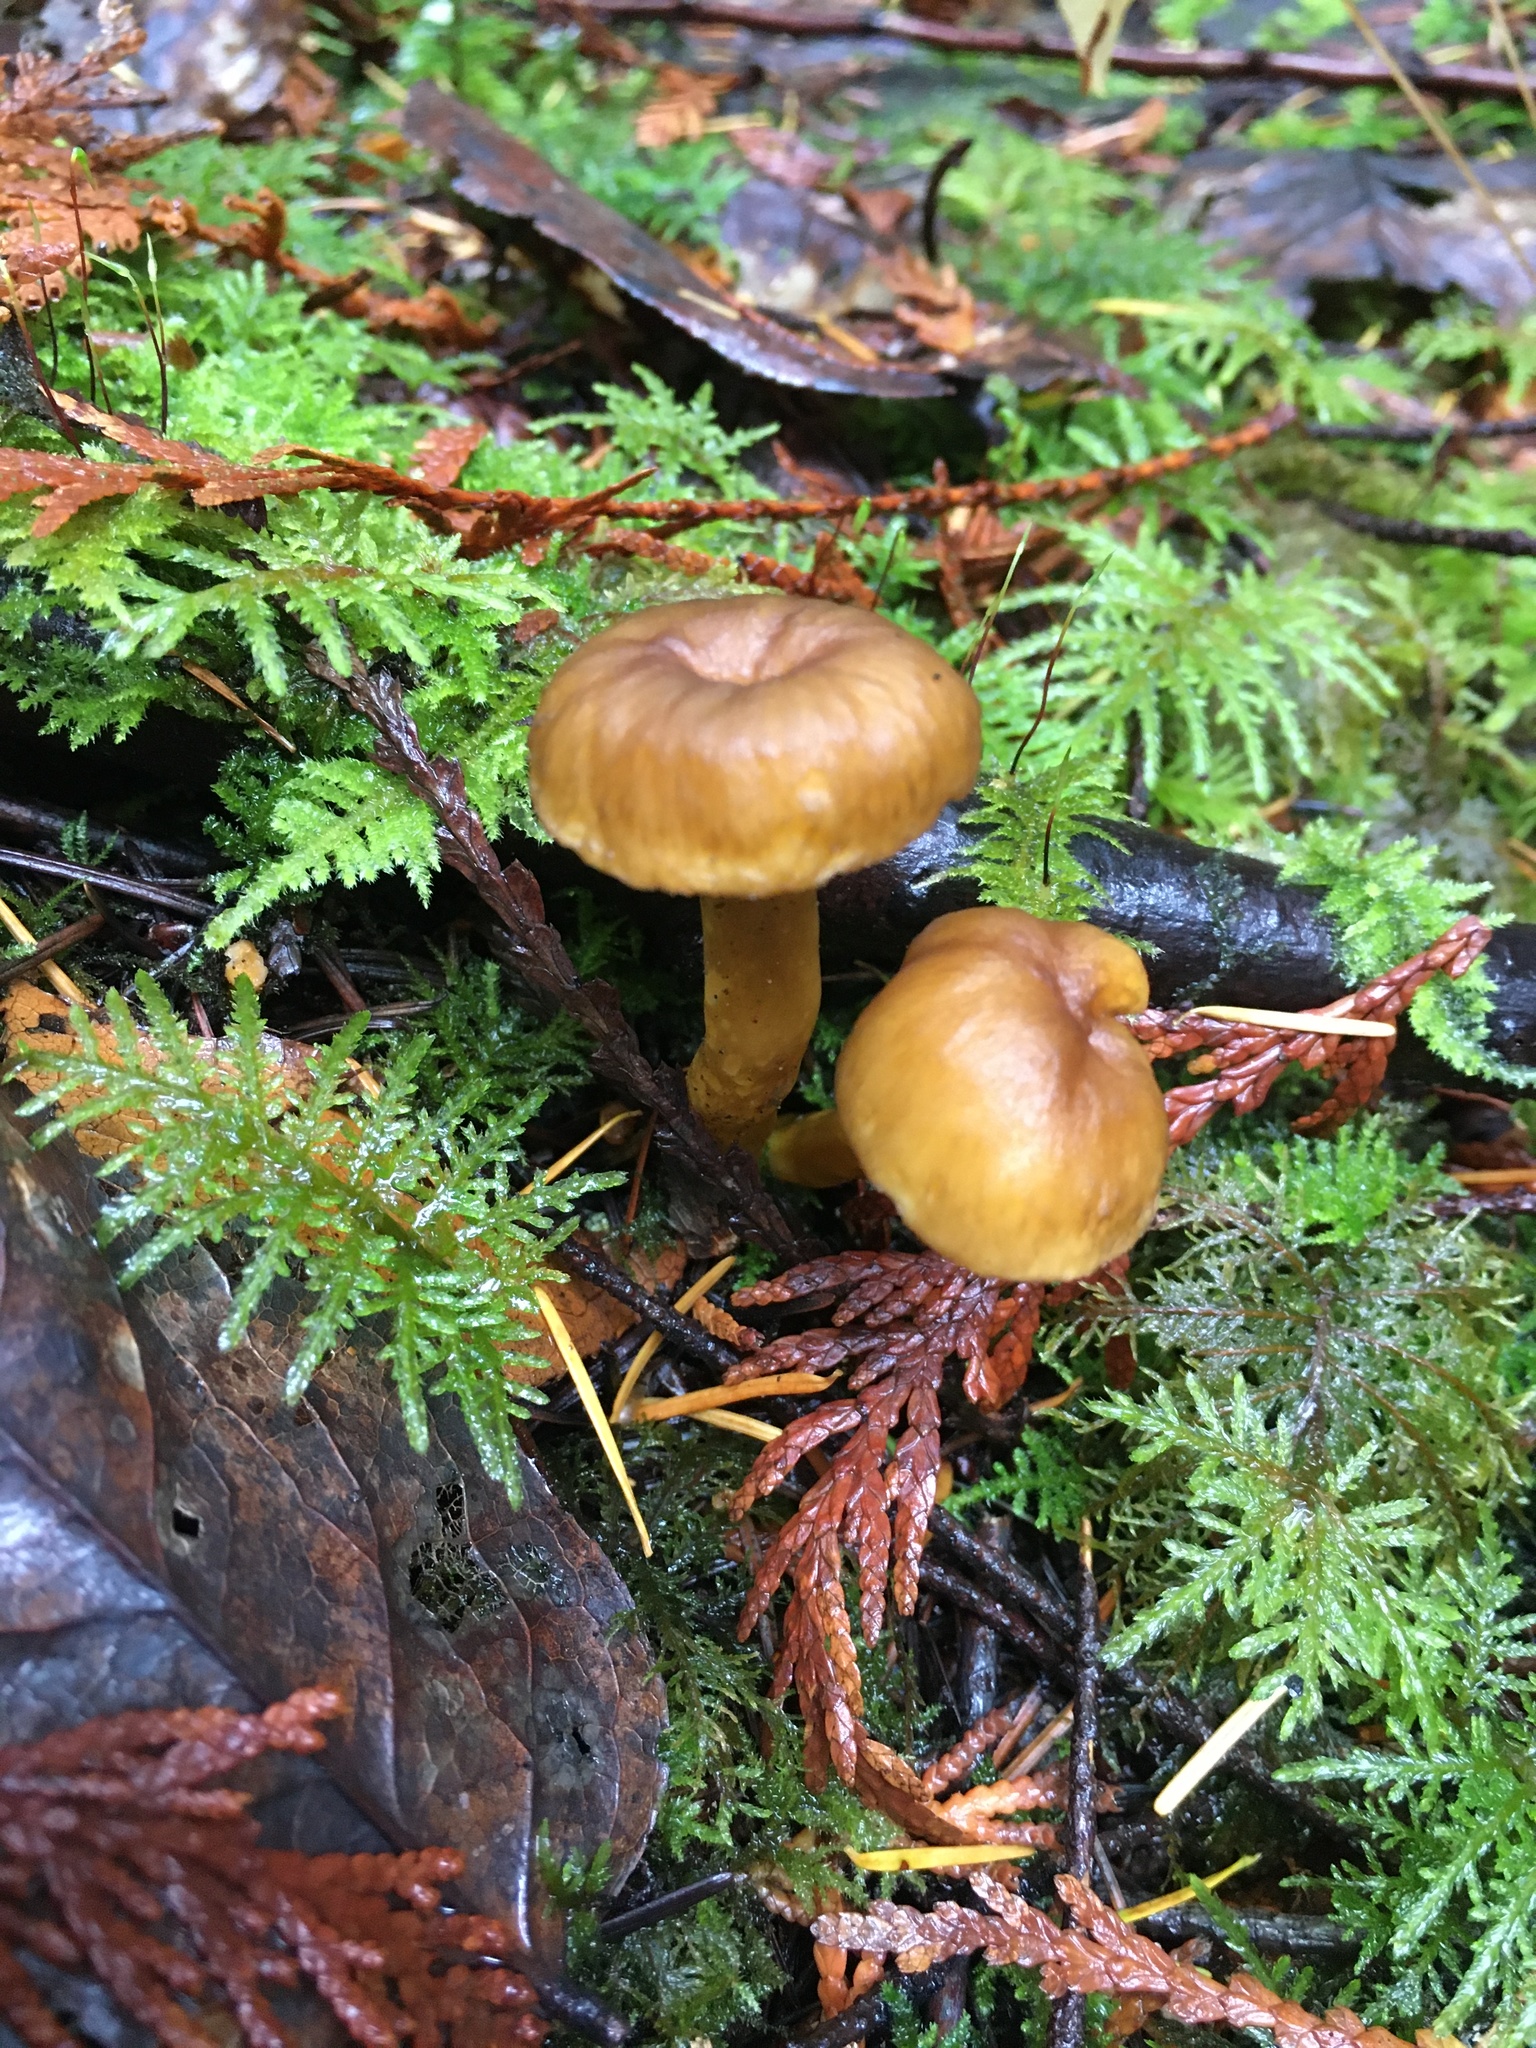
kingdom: Fungi
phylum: Basidiomycota
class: Agaricomycetes
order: Cantharellales
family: Hydnaceae
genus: Craterellus
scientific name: Craterellus tubaeformis
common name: Yellowfoot
